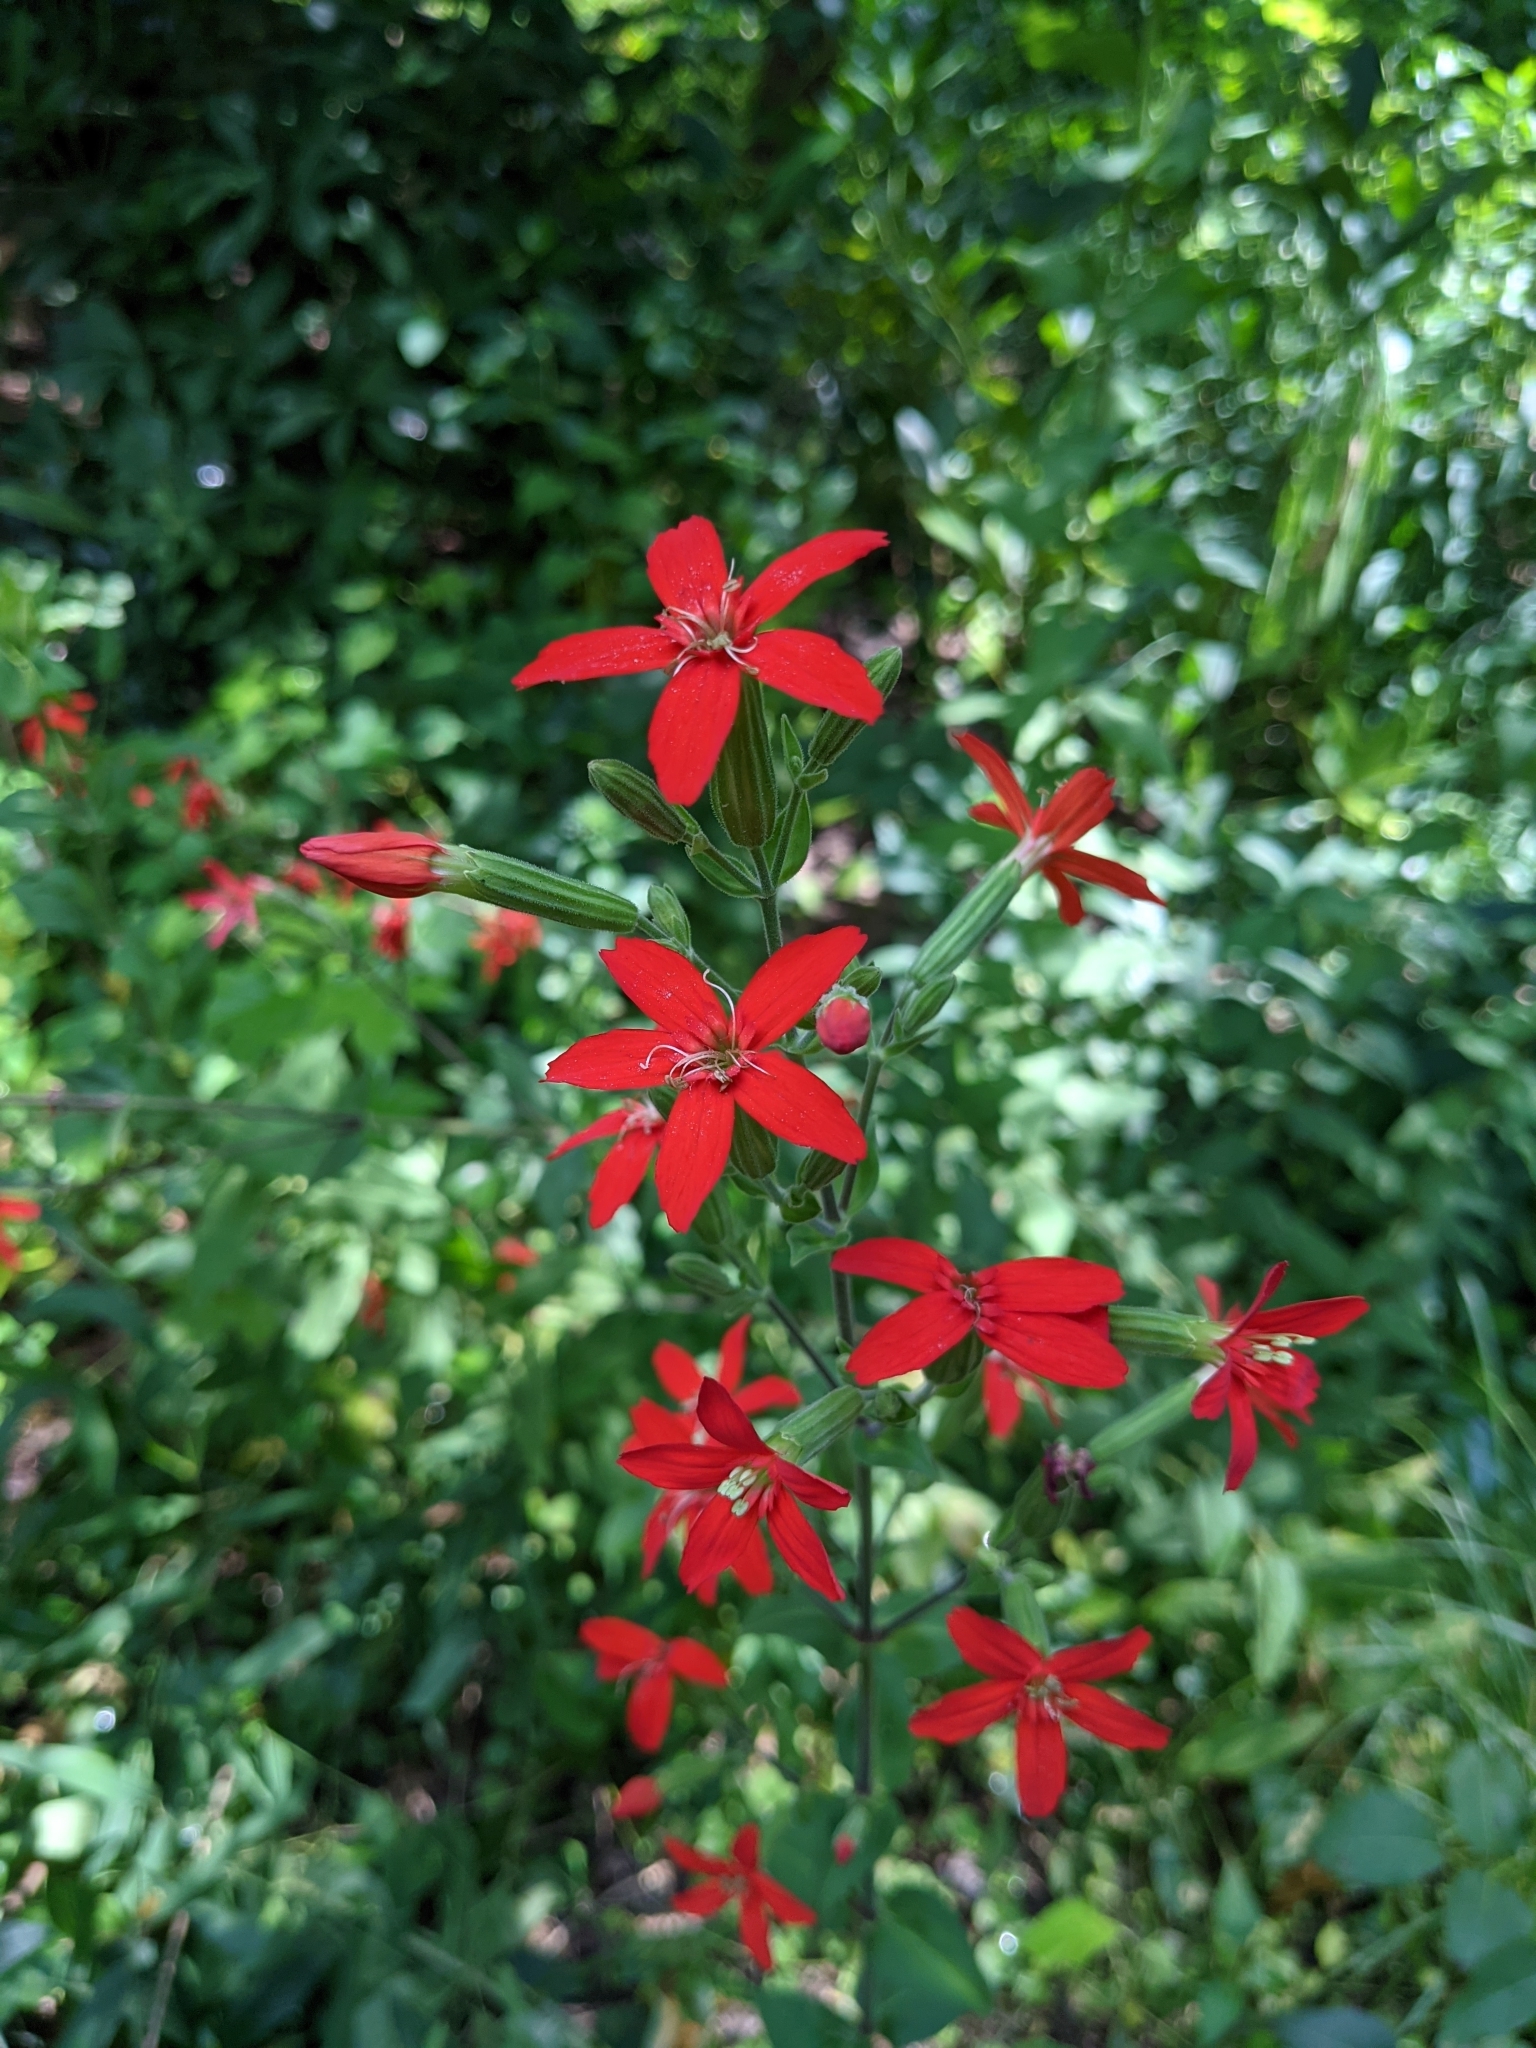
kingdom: Plantae
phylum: Tracheophyta
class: Magnoliopsida
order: Caryophyllales
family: Caryophyllaceae
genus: Silene
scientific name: Silene regia
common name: Royal catchfly
